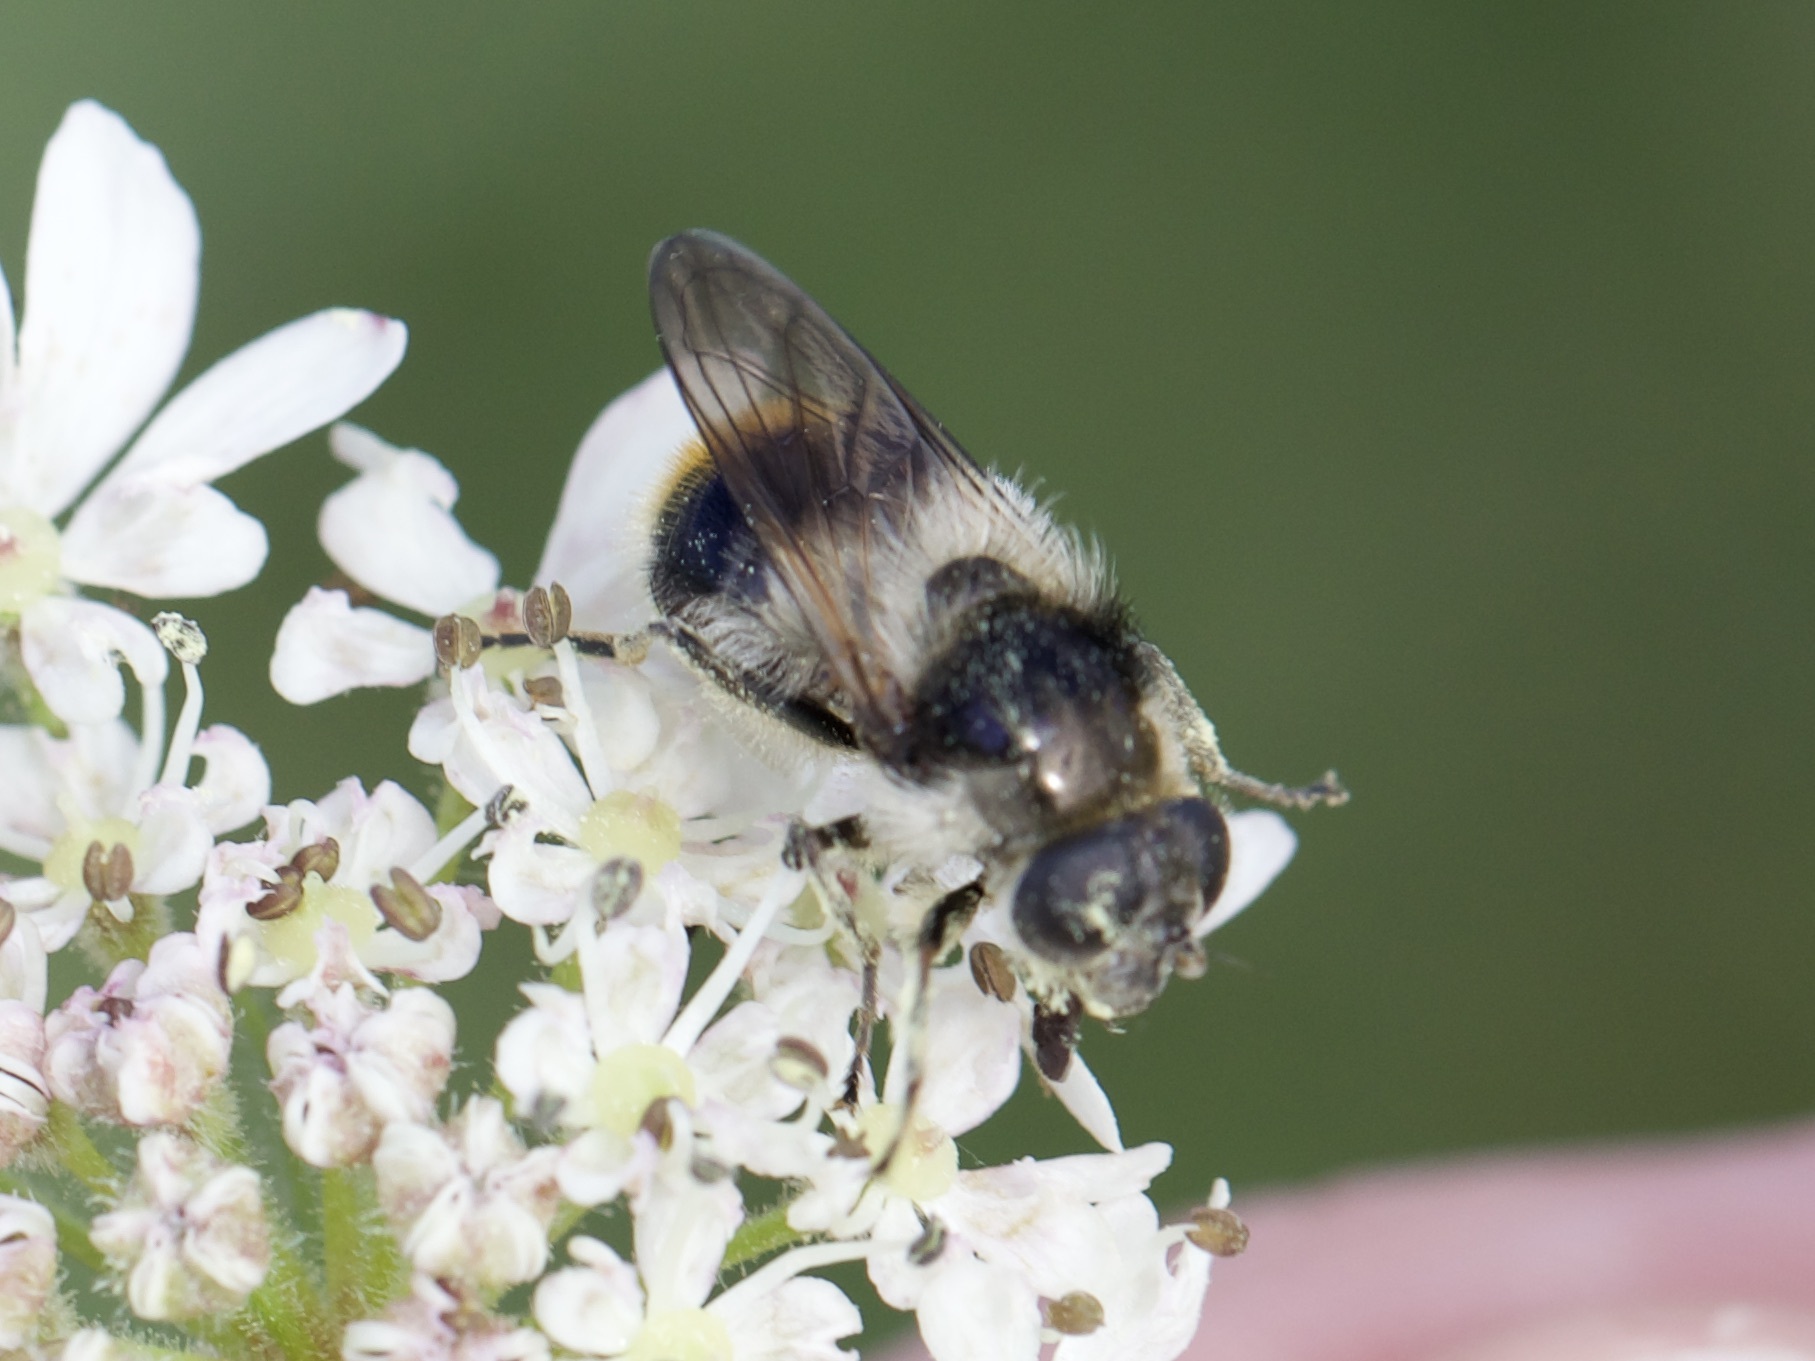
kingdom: Animalia
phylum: Arthropoda
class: Insecta
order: Diptera
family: Syrphidae
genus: Cheilosia
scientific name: Cheilosia illustrata
